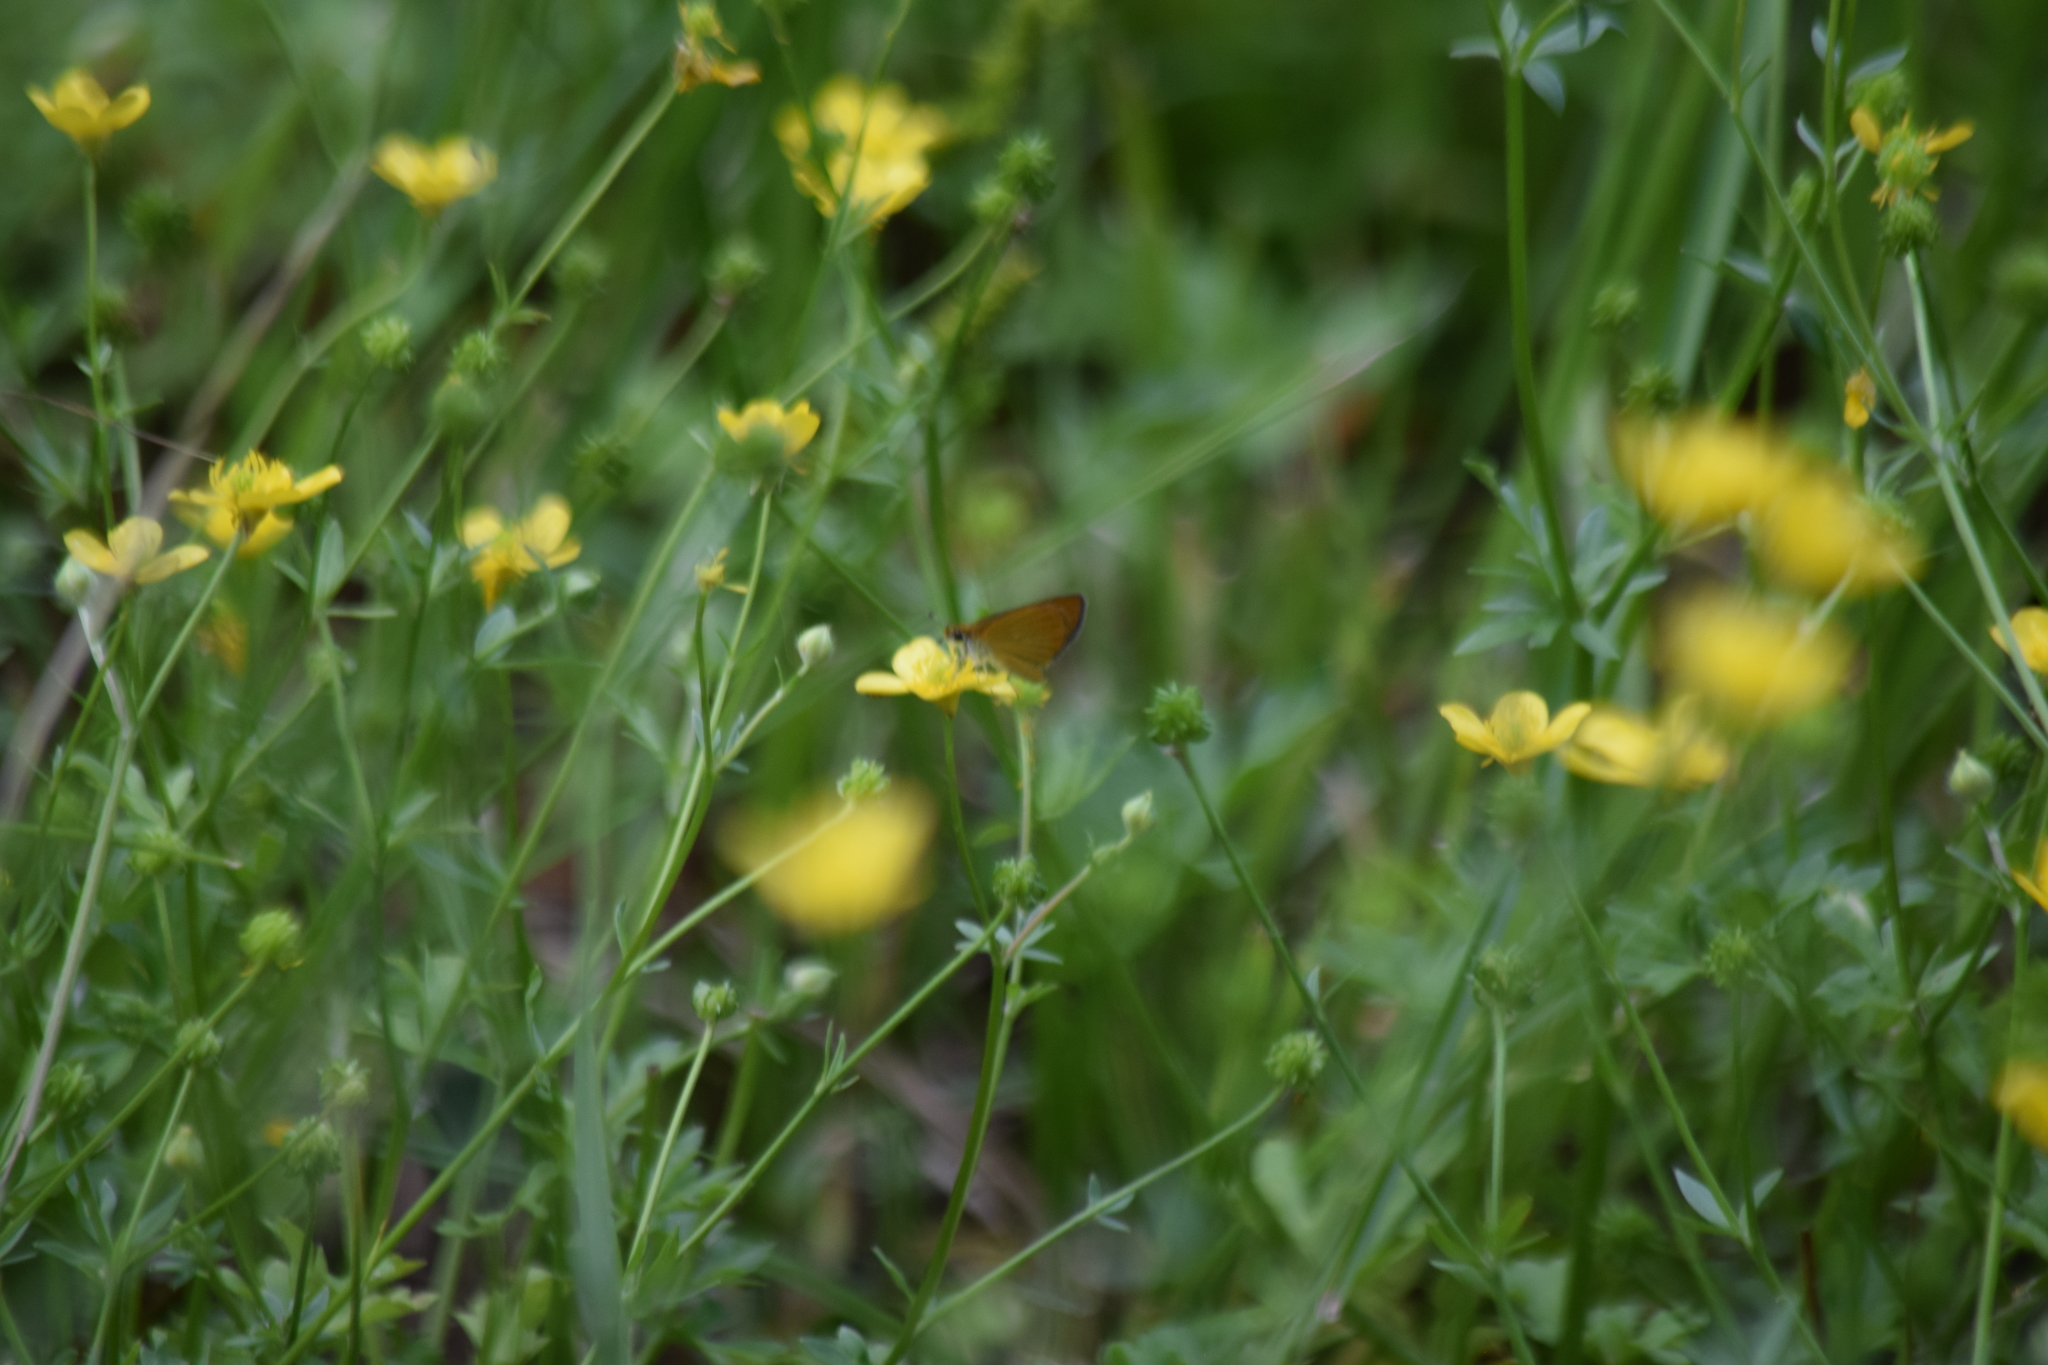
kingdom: Animalia
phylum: Arthropoda
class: Insecta
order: Lepidoptera
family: Hesperiidae
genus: Ancyloxypha
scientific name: Ancyloxypha numitor
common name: Least skipper
